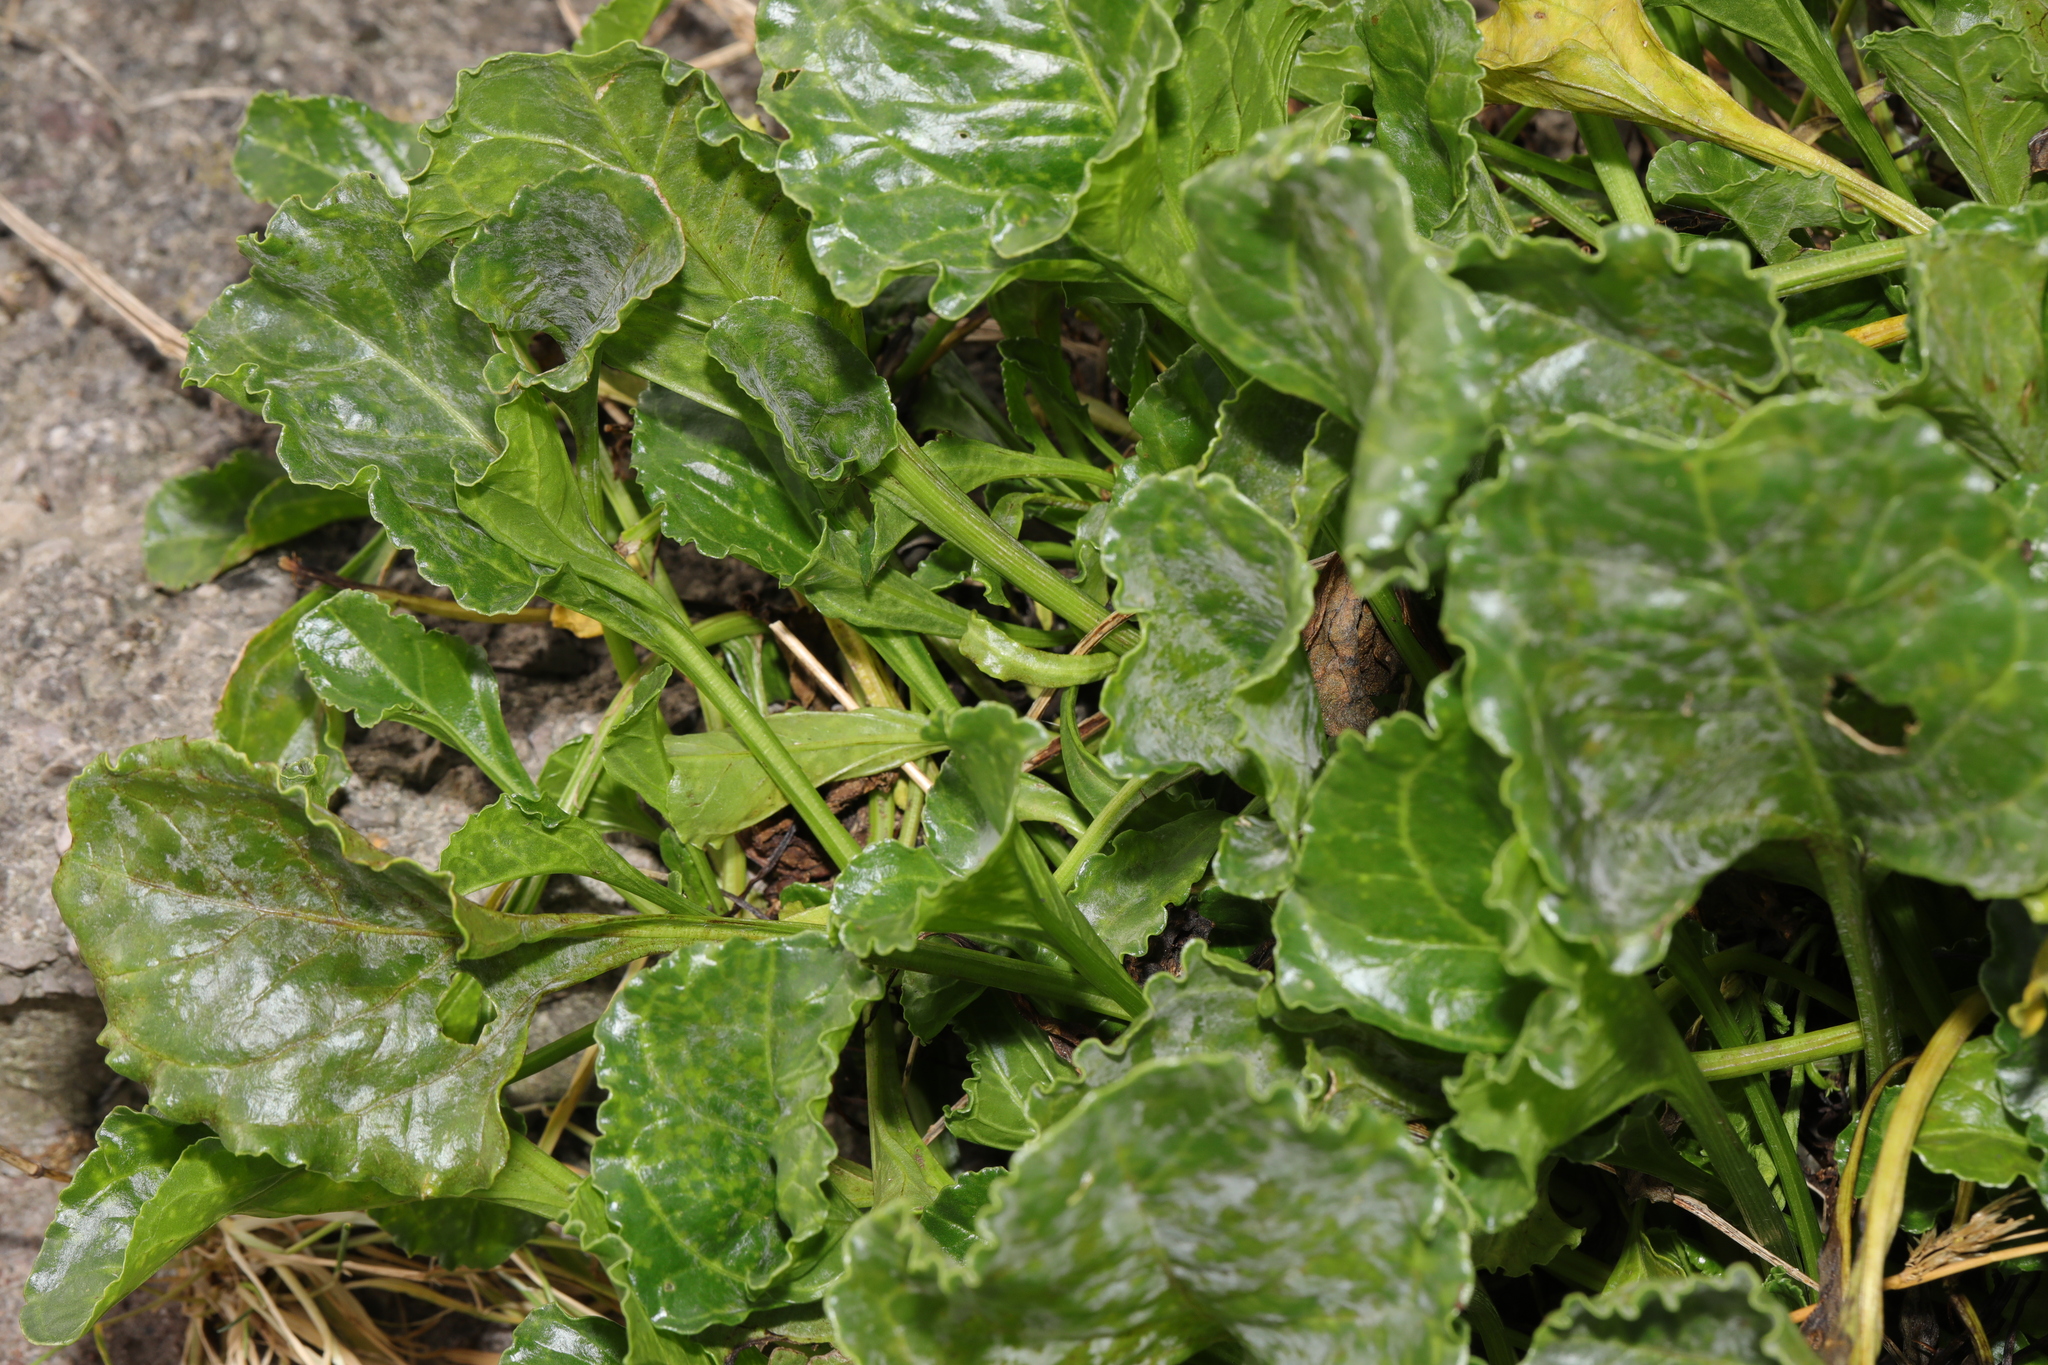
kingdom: Plantae
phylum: Tracheophyta
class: Magnoliopsida
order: Caryophyllales
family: Amaranthaceae
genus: Beta
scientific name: Beta vulgaris
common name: Beet
